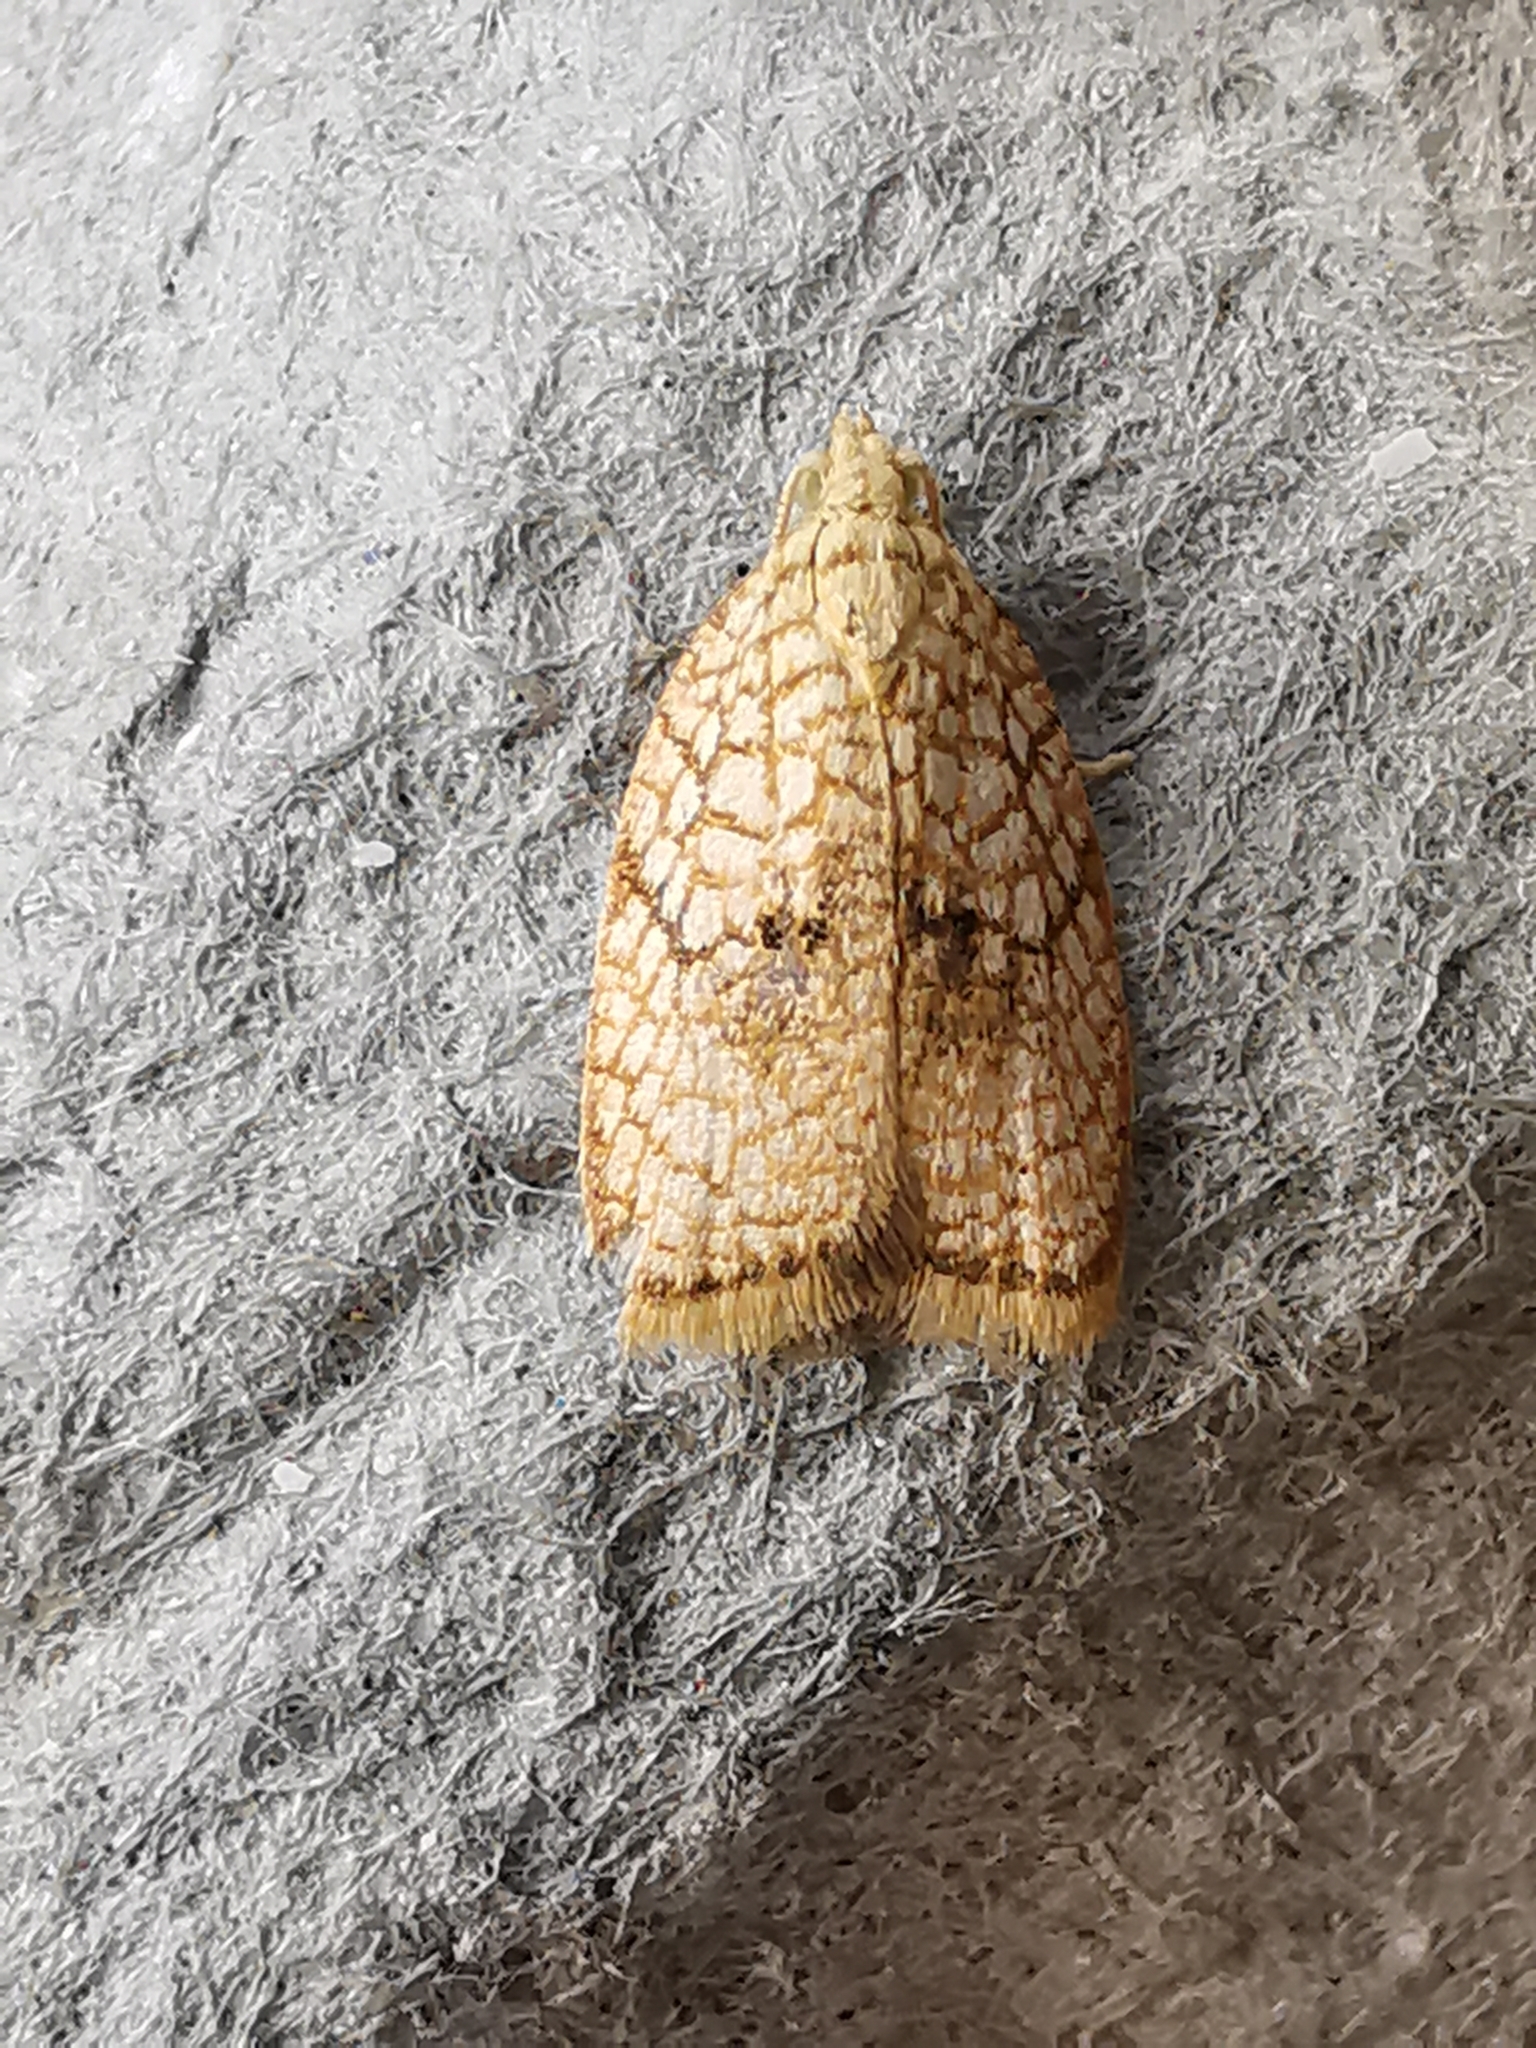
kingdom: Animalia
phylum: Arthropoda
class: Insecta
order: Lepidoptera
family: Tortricidae
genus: Acleris
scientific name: Acleris forsskaleana
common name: Maple button
